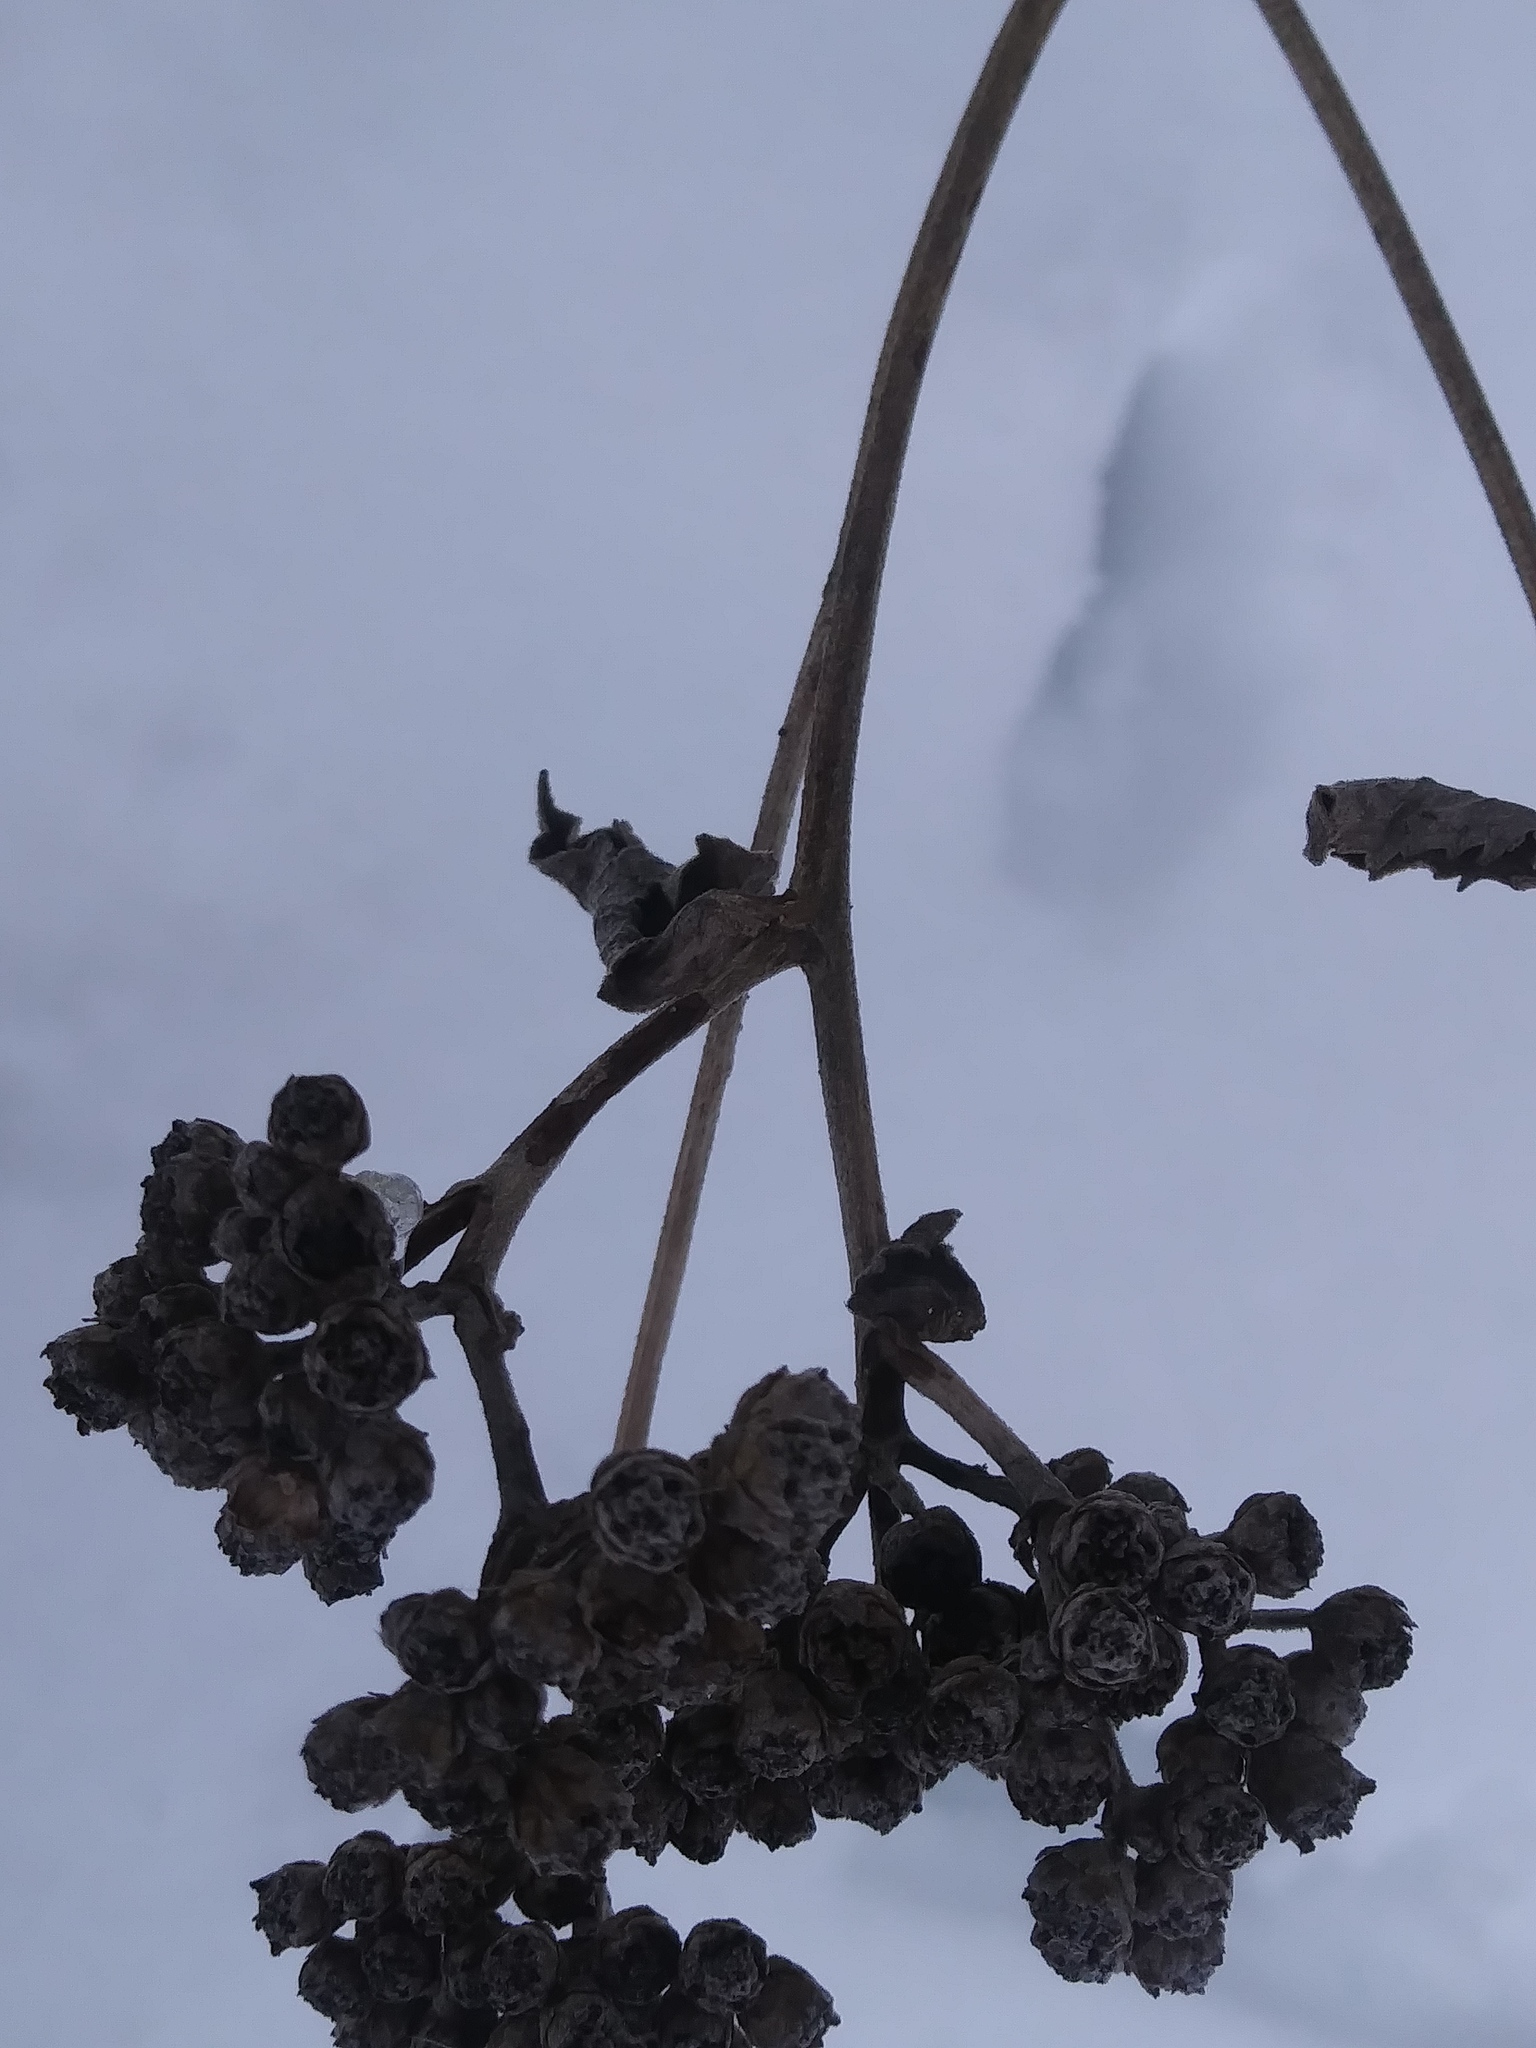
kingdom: Plantae
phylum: Tracheophyta
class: Magnoliopsida
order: Asterales
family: Asteraceae
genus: Parthenium
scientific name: Parthenium integrifolium
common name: American feverfew
